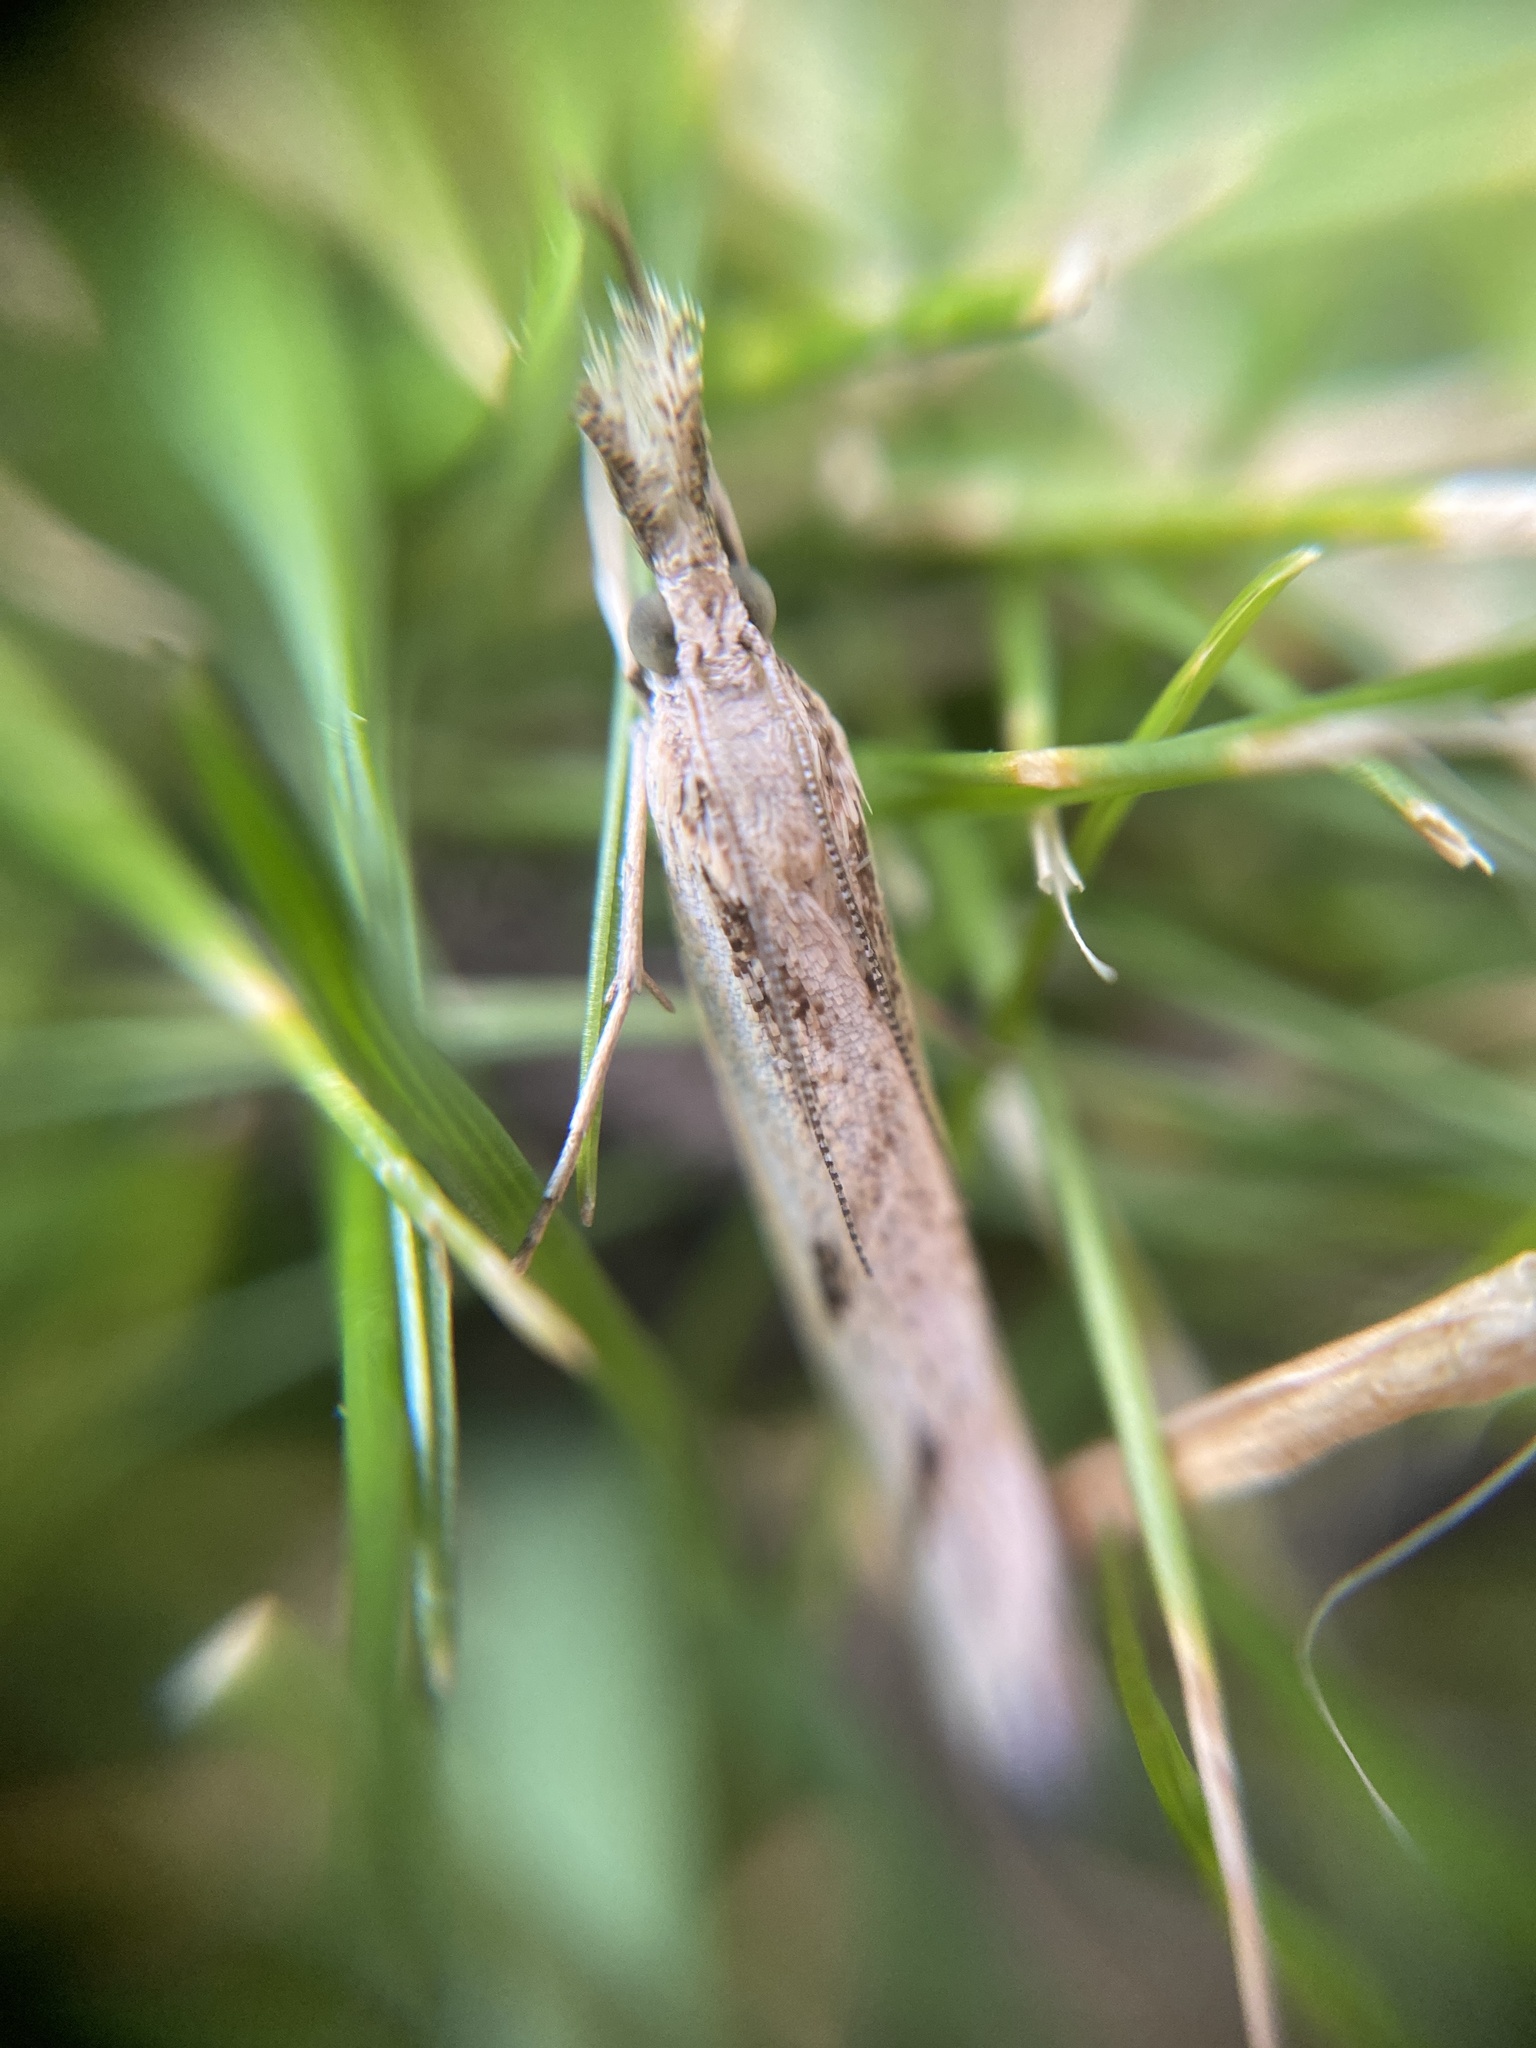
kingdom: Animalia
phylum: Arthropoda
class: Insecta
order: Lepidoptera
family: Crambidae
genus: Agriphila
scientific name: Agriphila inquinatella
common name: Barred grass-veneer
